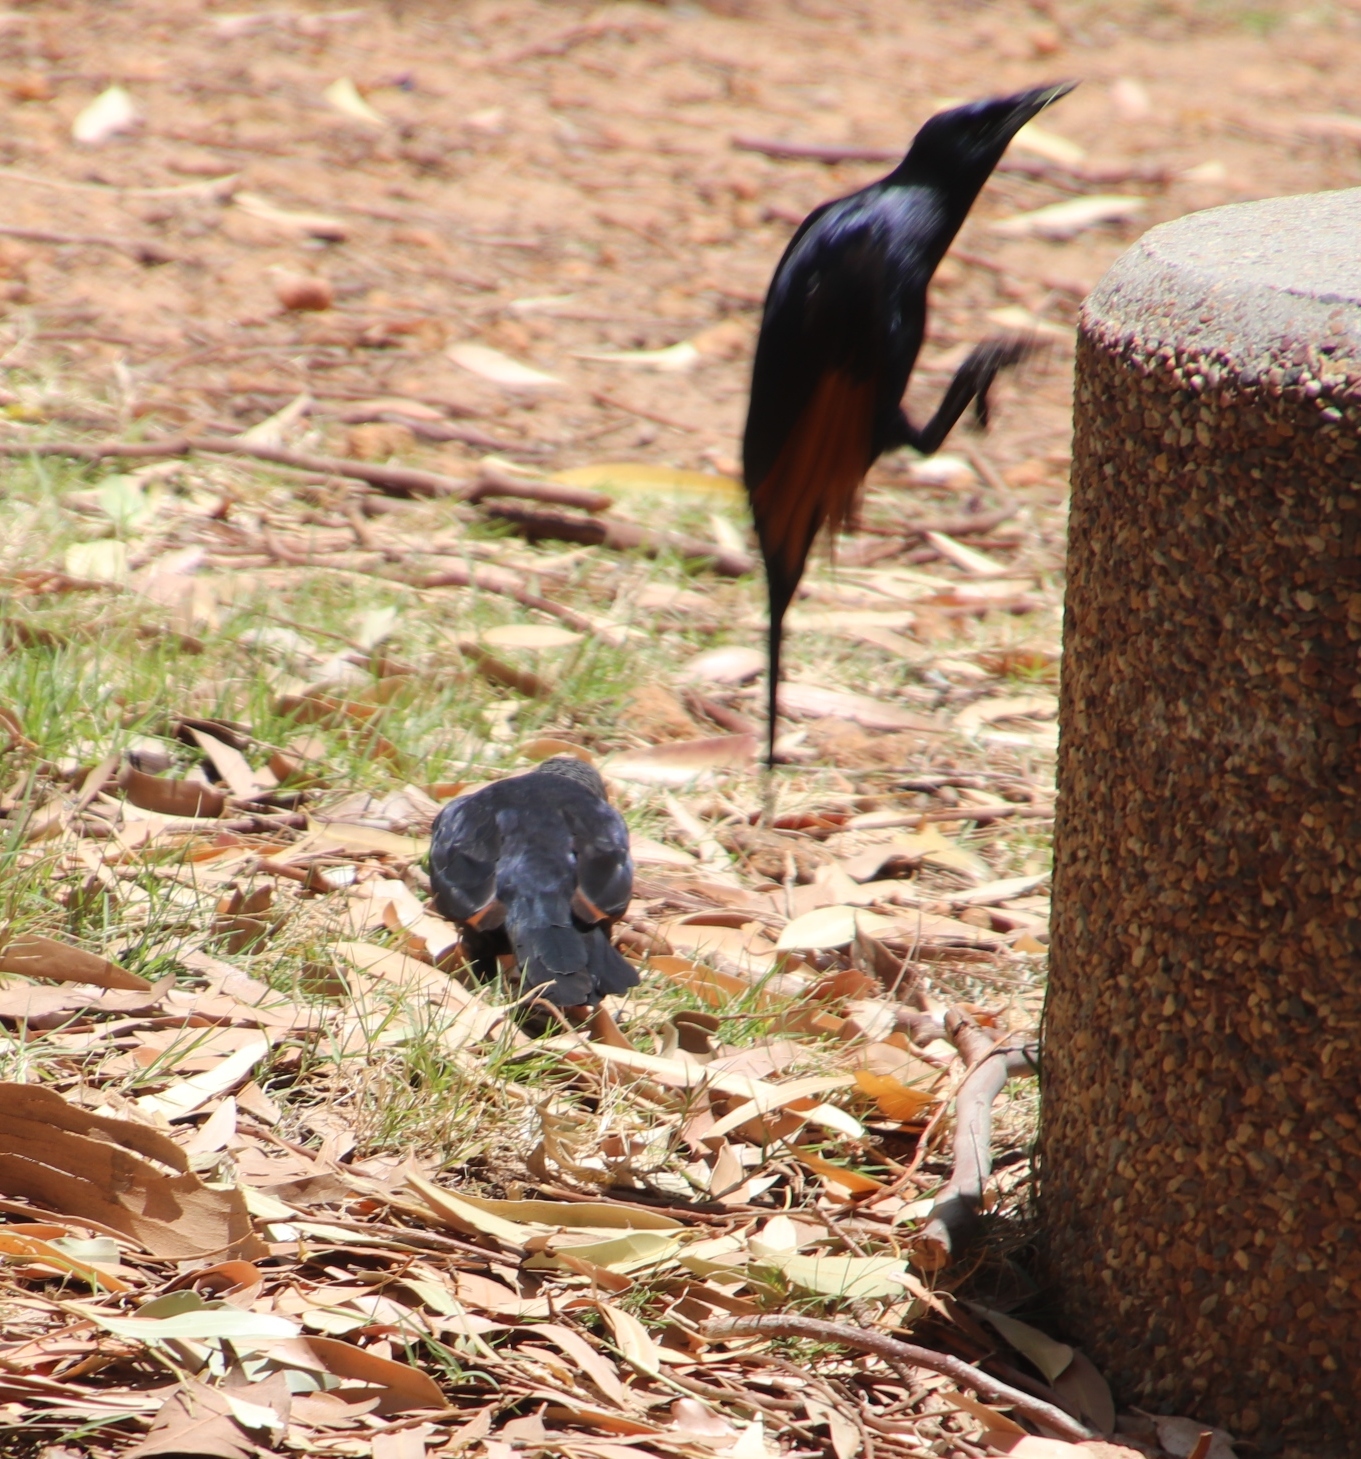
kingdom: Animalia
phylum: Chordata
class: Aves
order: Passeriformes
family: Sturnidae
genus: Onychognathus
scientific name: Onychognathus morio
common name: Red-winged starling
